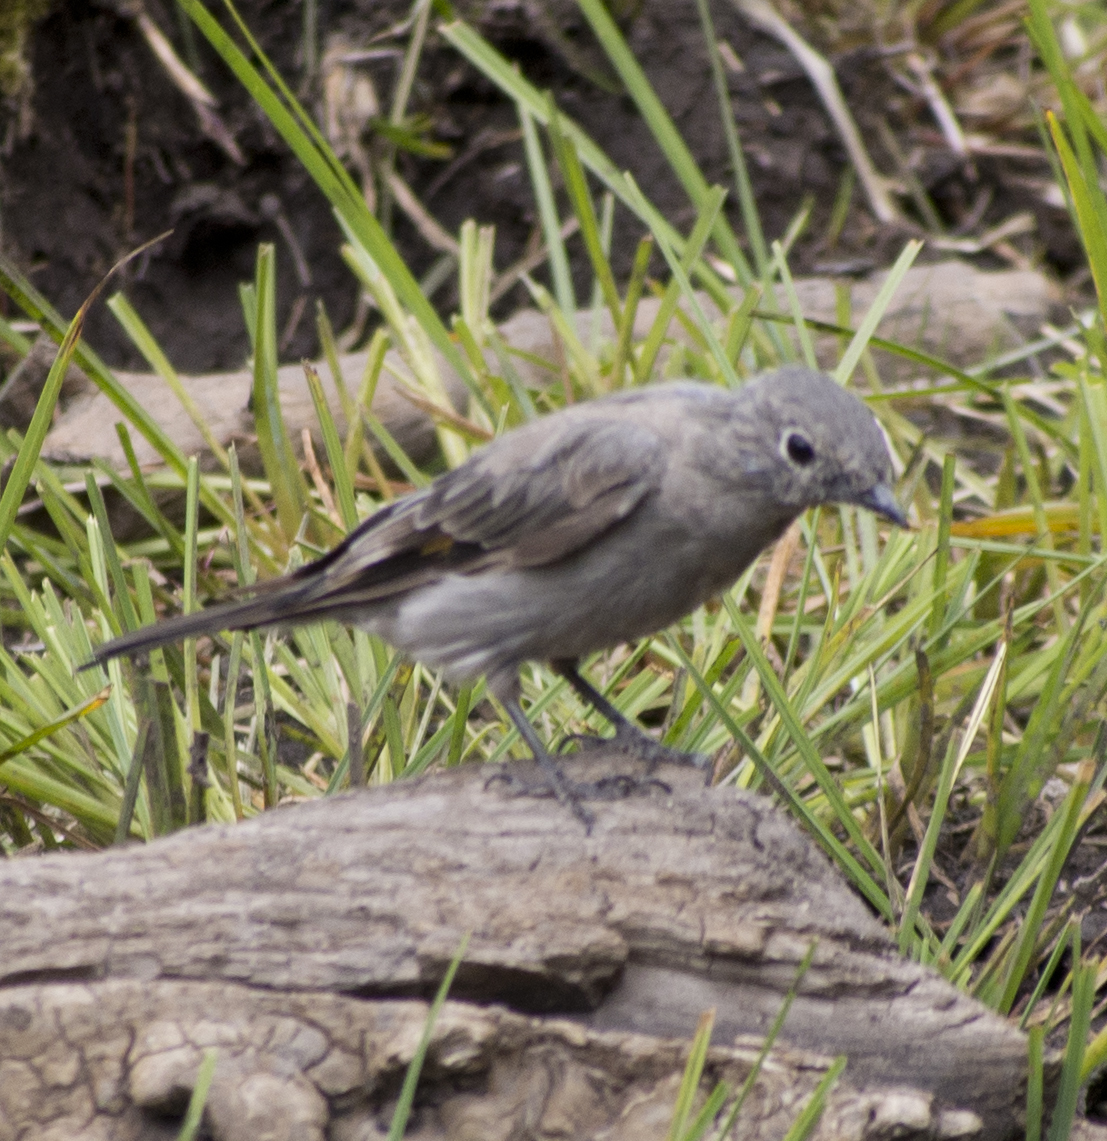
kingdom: Animalia
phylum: Chordata
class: Aves
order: Passeriformes
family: Turdidae
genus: Myadestes
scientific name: Myadestes townsendi
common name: Townsend's solitaire
